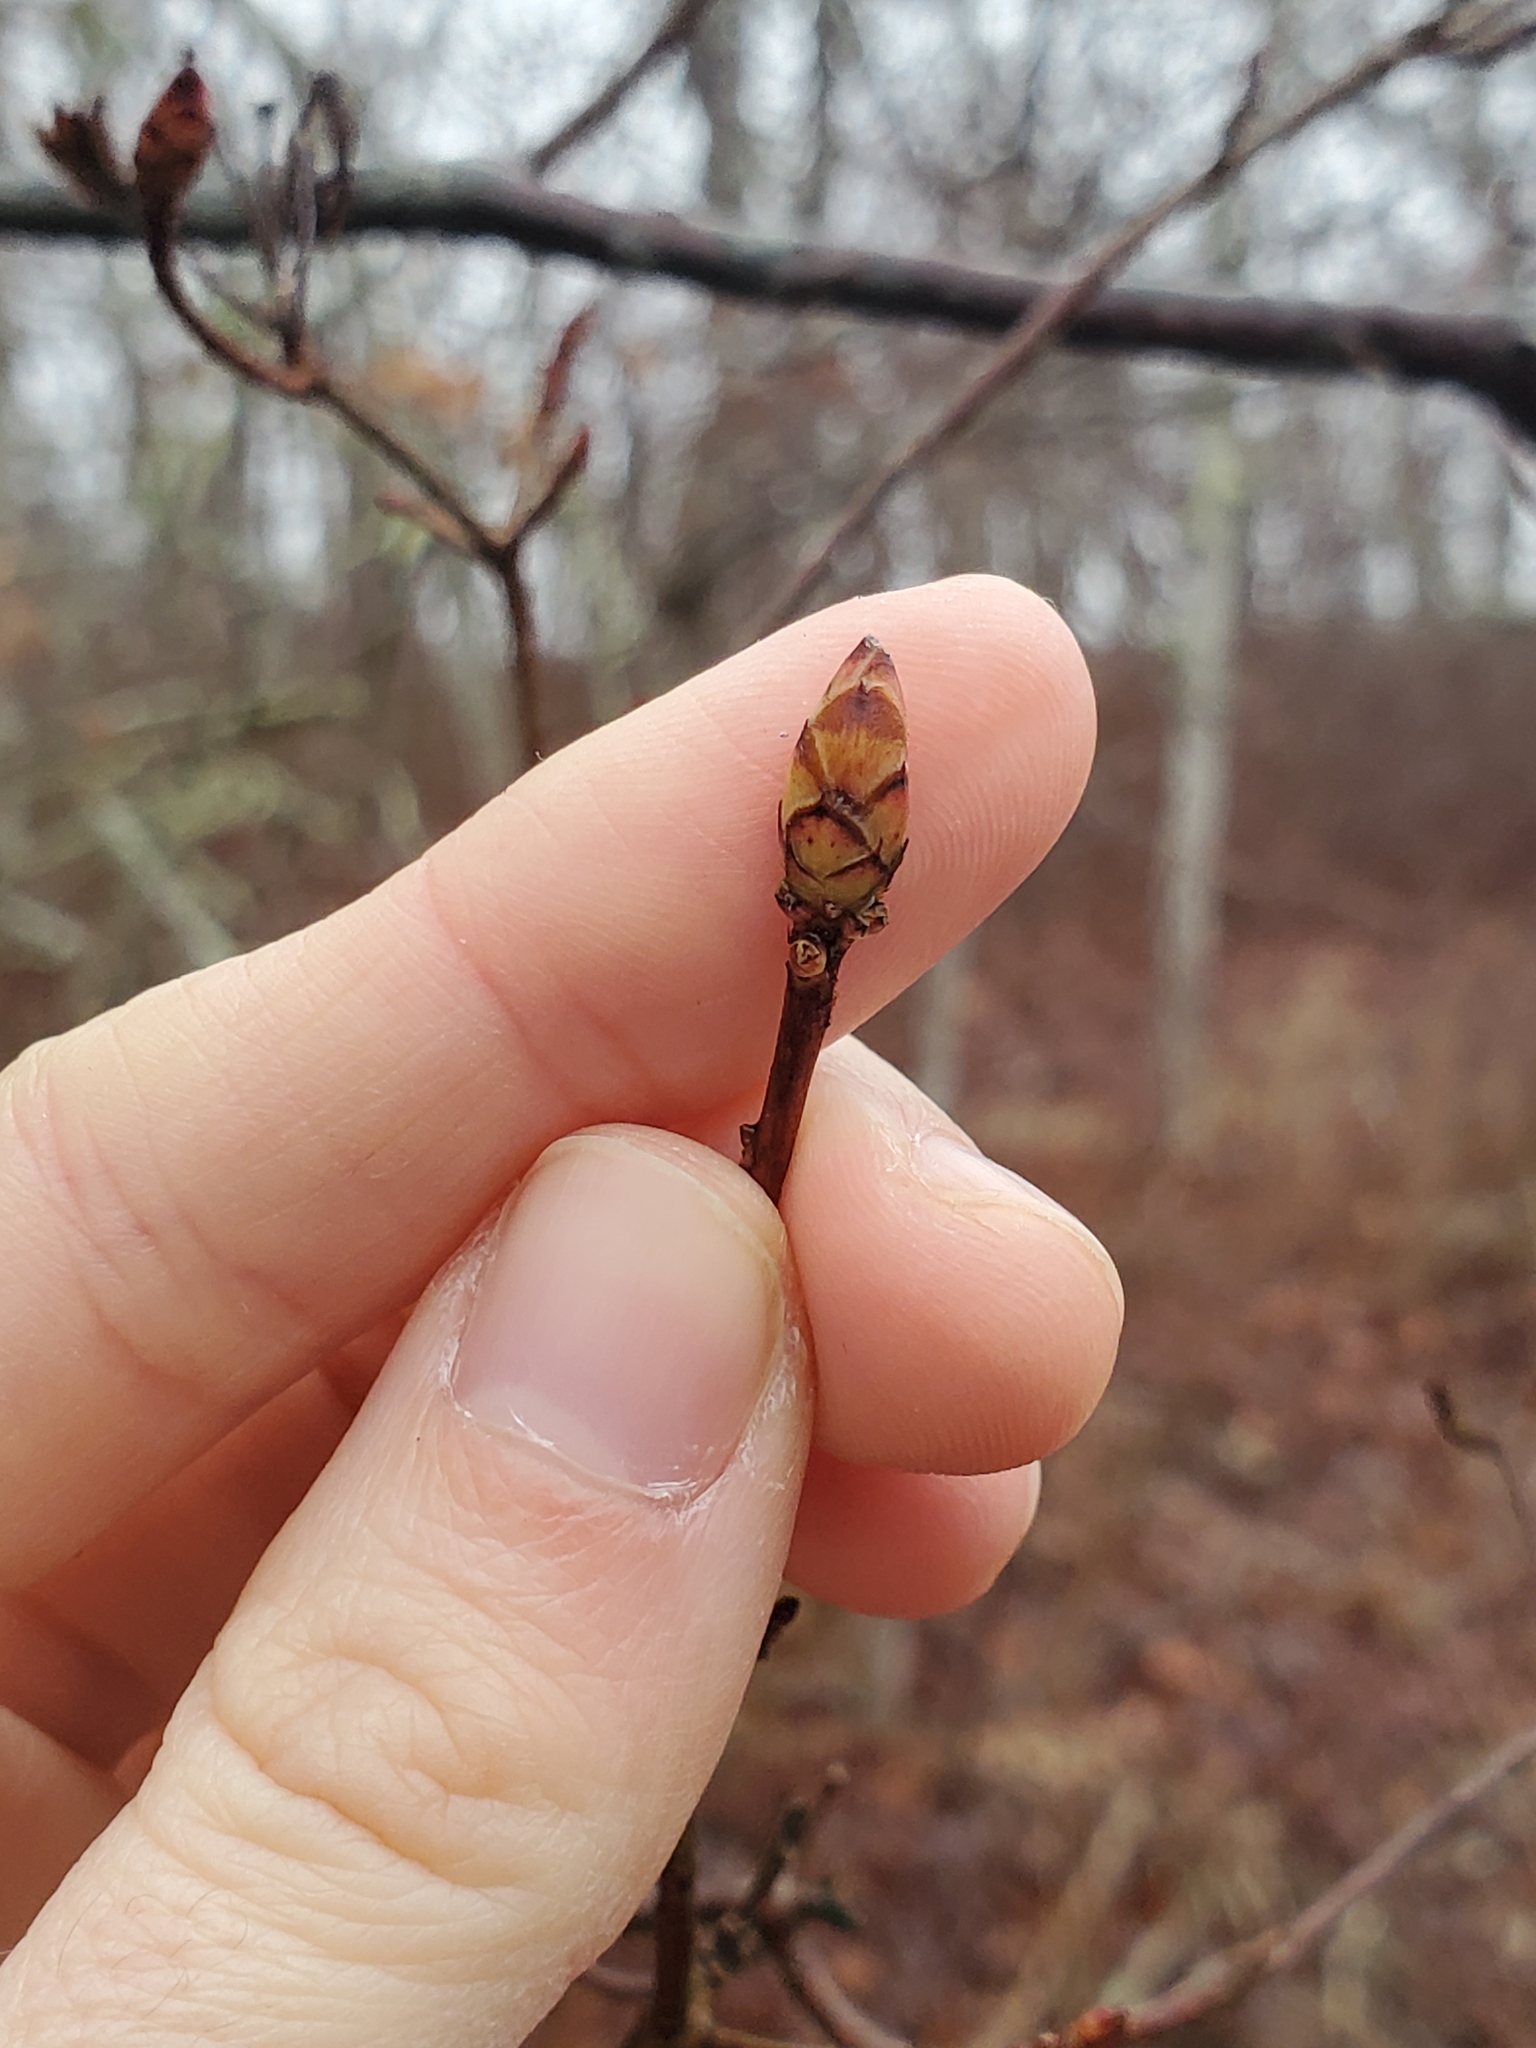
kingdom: Plantae
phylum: Tracheophyta
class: Magnoliopsida
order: Ericales
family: Ericaceae
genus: Rhododendron
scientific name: Rhododendron viscosum
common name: Clammy azalea
